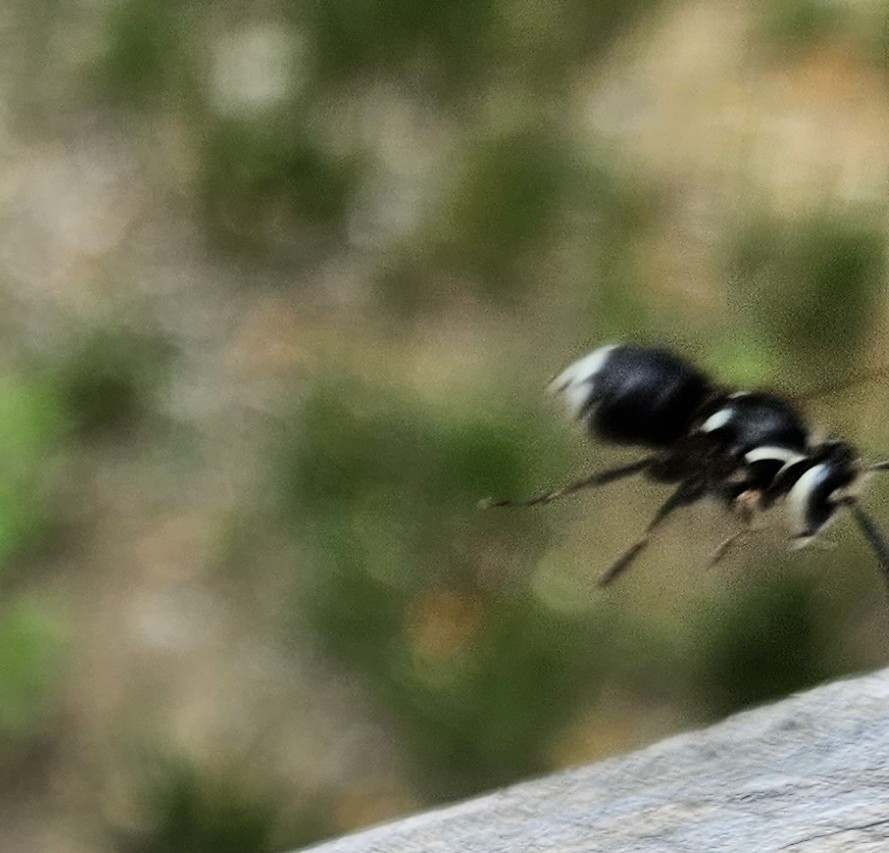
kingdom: Animalia
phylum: Arthropoda
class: Insecta
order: Hymenoptera
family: Vespidae
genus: Dolichovespula
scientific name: Dolichovespula maculata
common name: Bald-faced hornet
